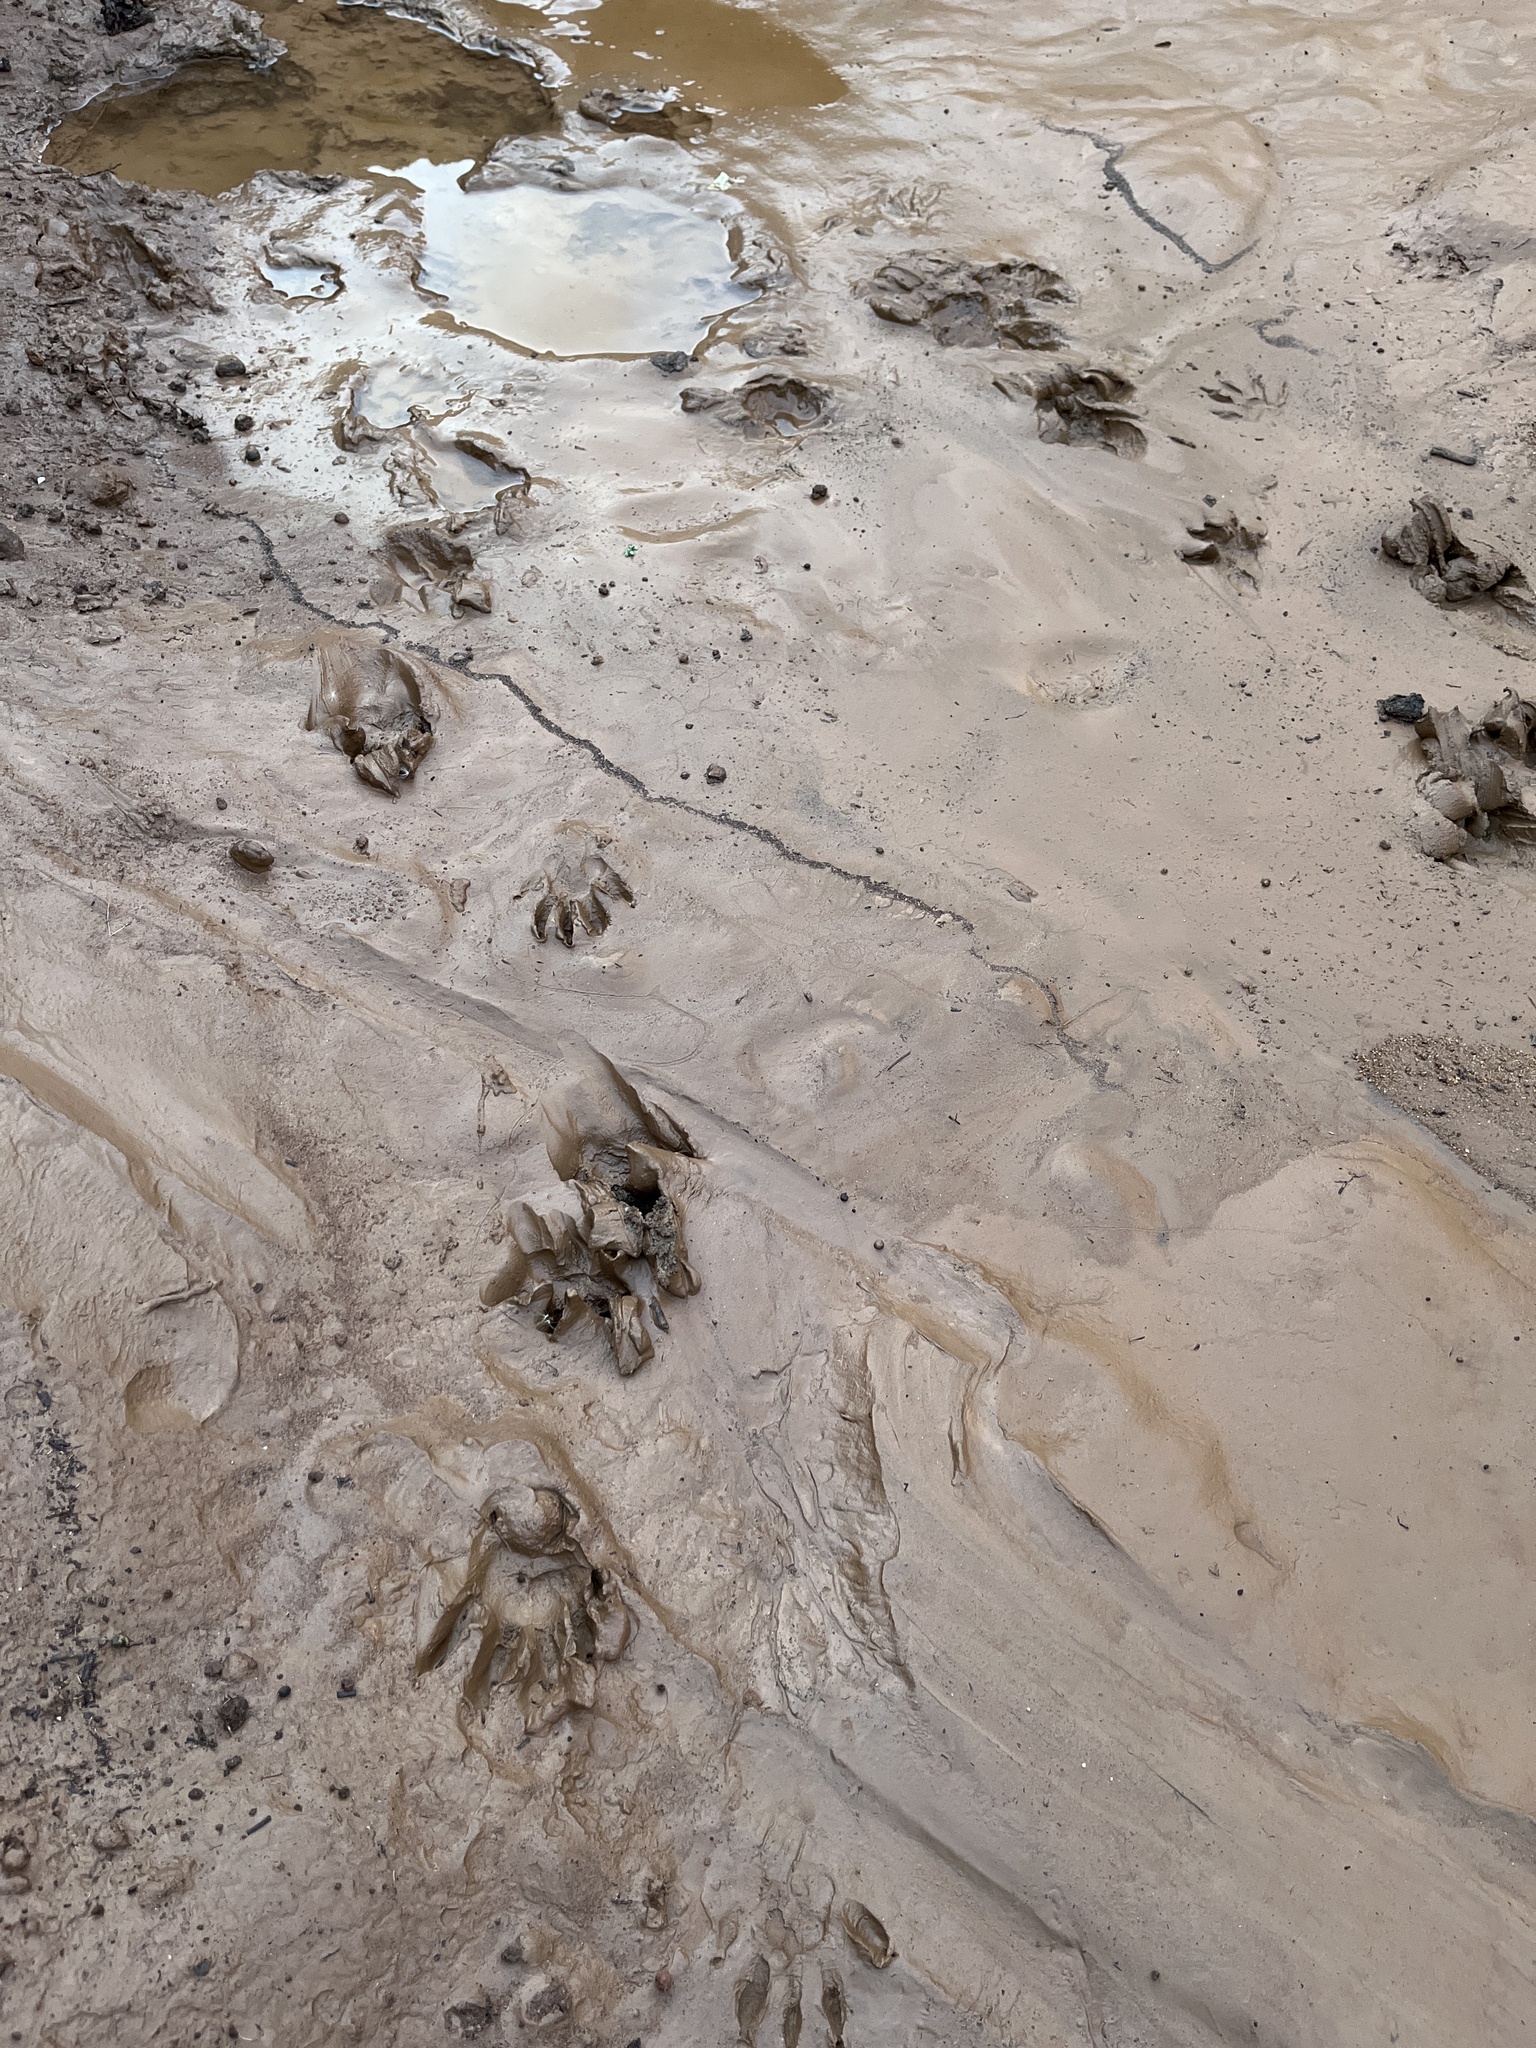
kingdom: Animalia
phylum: Chordata
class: Mammalia
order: Carnivora
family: Procyonidae
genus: Procyon
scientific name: Procyon lotor
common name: Raccoon
